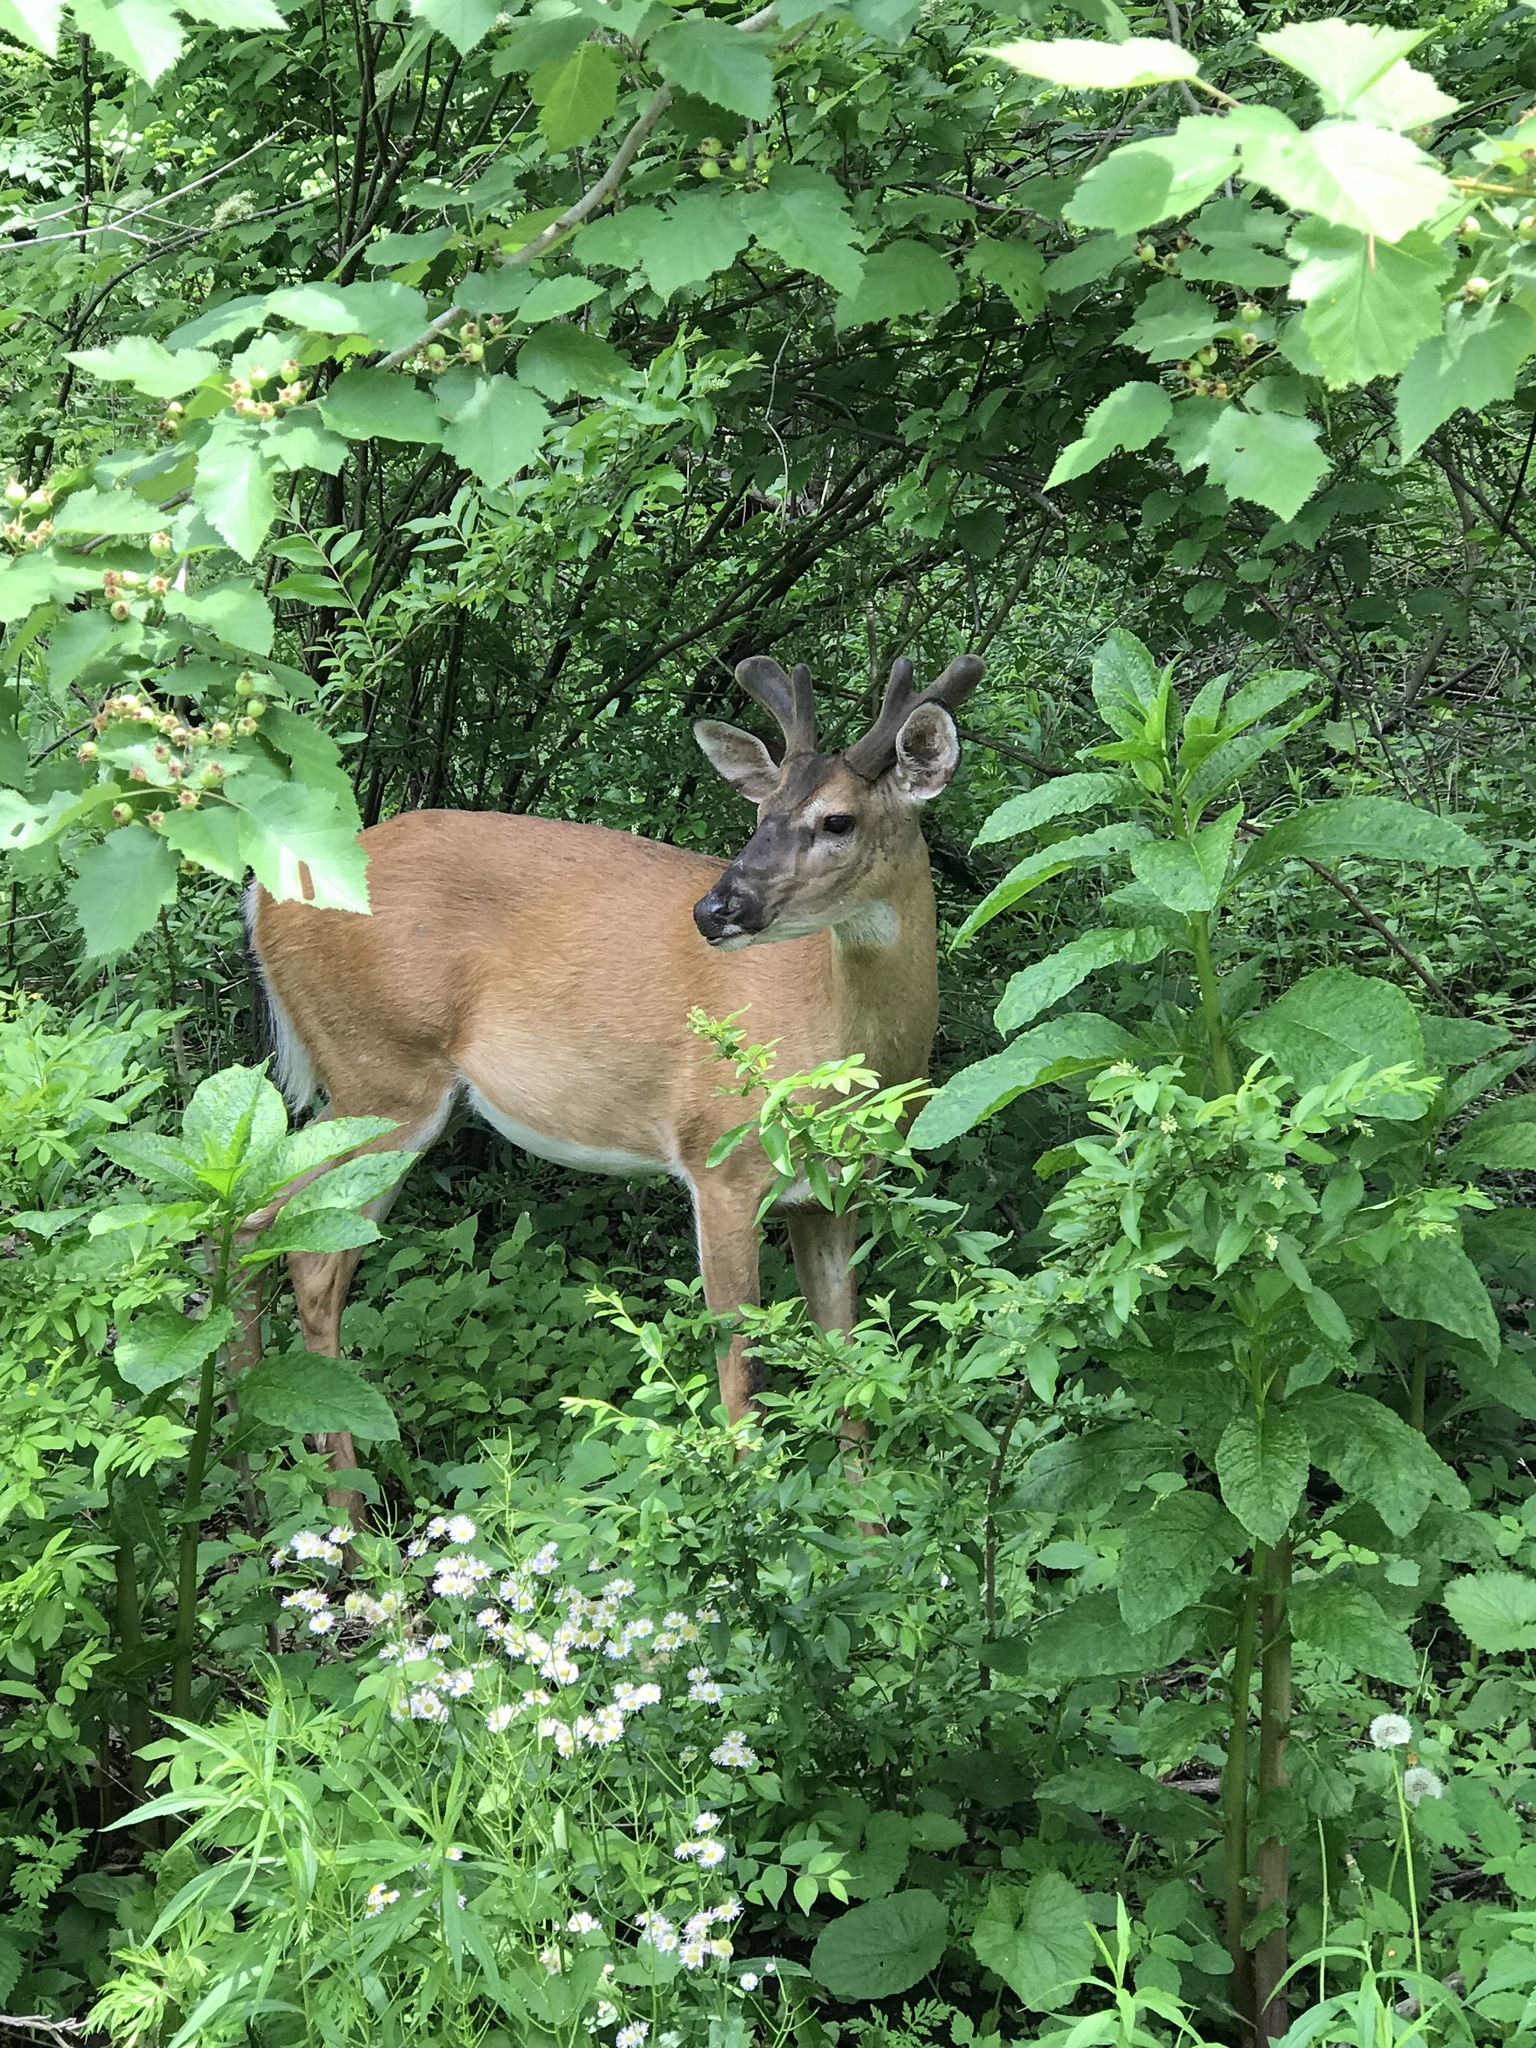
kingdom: Animalia
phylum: Chordata
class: Mammalia
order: Artiodactyla
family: Cervidae
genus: Odocoileus
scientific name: Odocoileus virginianus
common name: White-tailed deer
